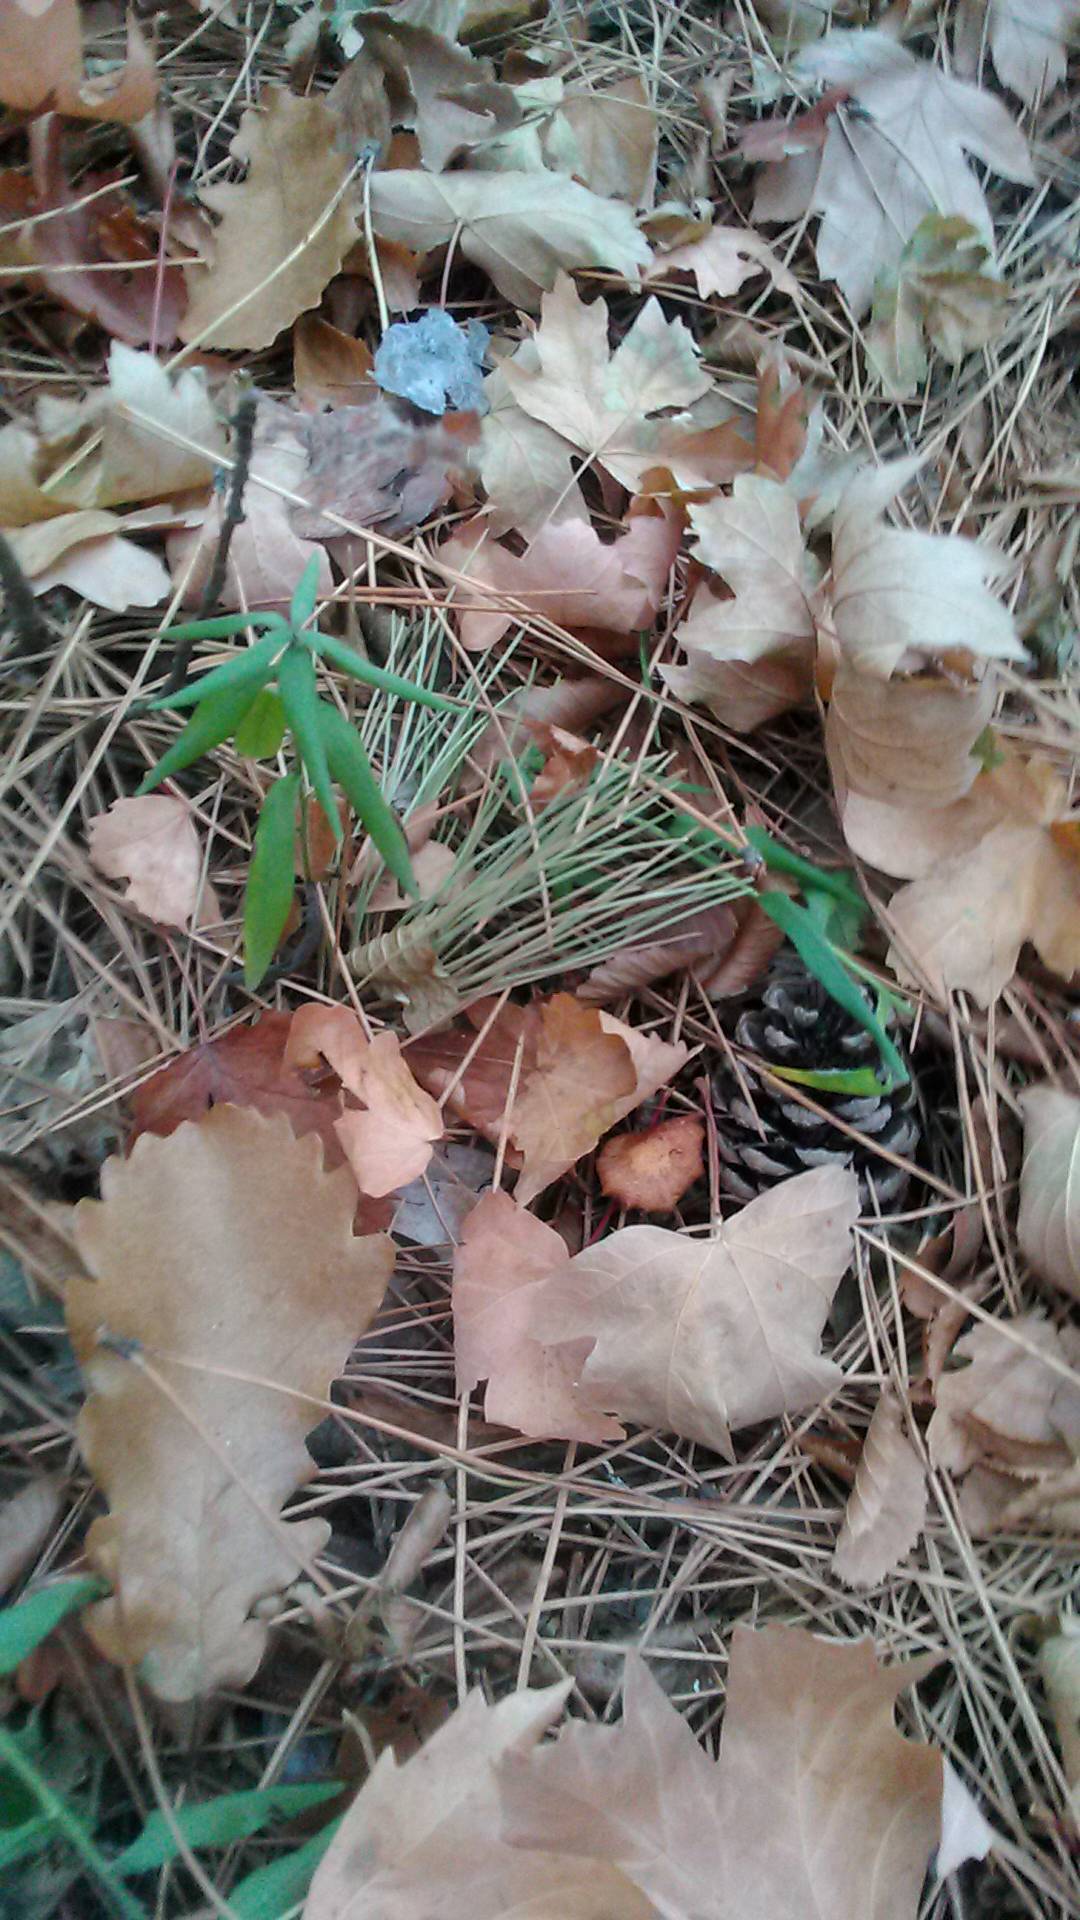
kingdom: Plantae
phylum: Tracheophyta
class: Magnoliopsida
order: Boraginales
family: Boraginaceae
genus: Aegonychon
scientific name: Aegonychon purpurocaeruleum
